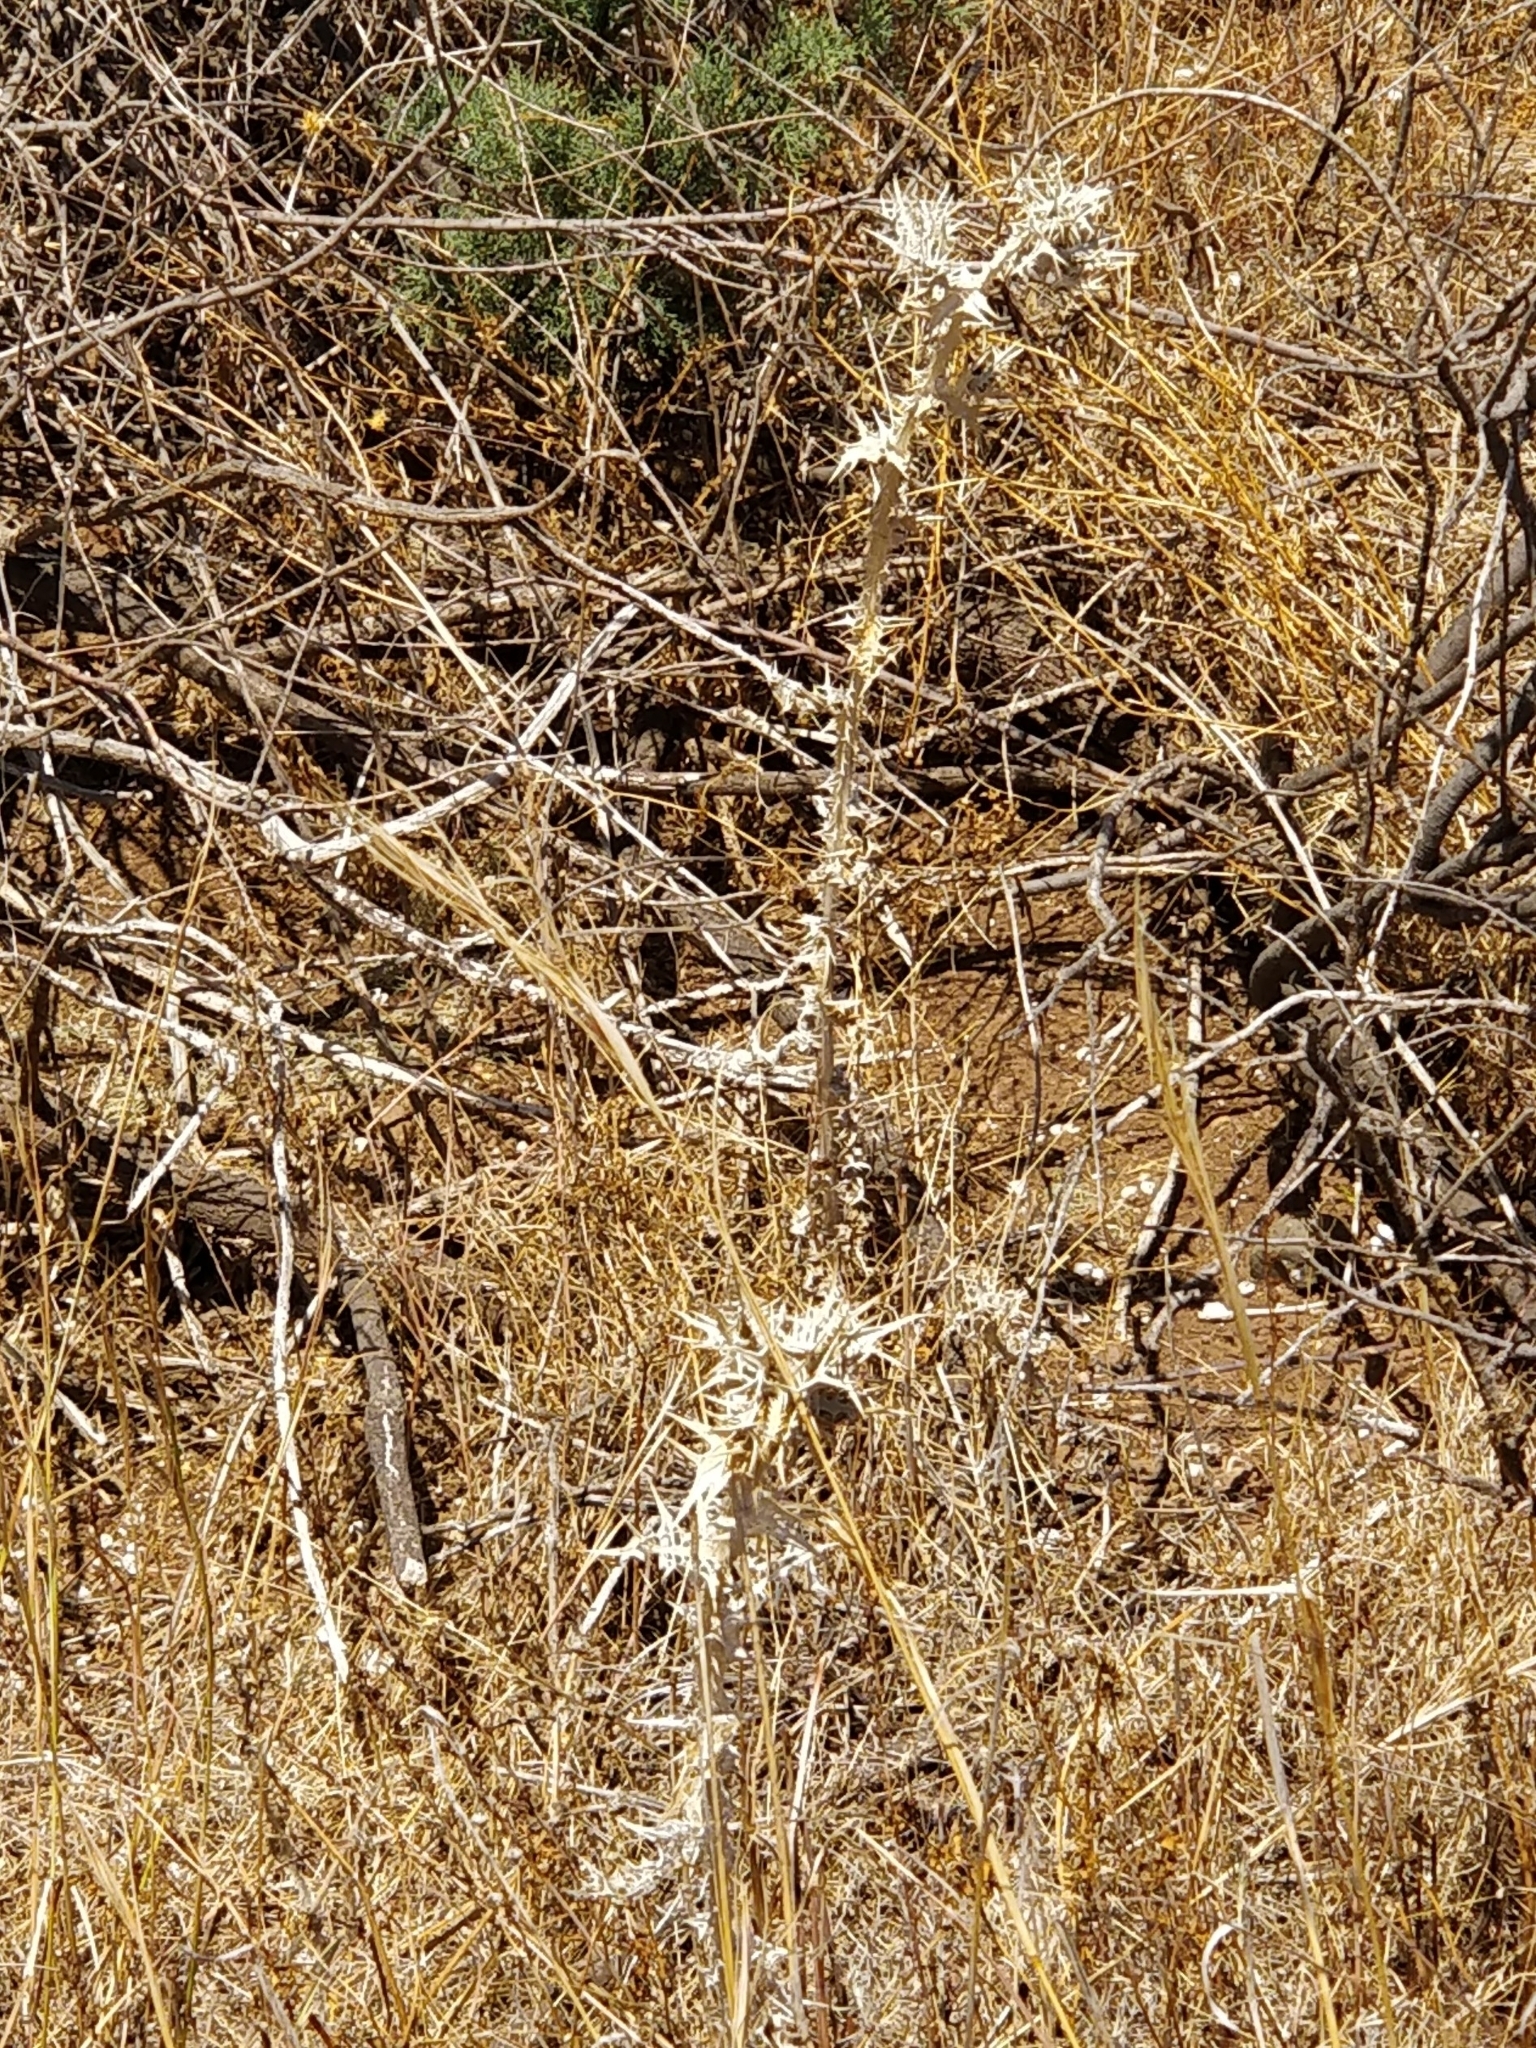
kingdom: Plantae
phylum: Tracheophyta
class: Magnoliopsida
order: Asterales
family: Asteraceae
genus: Scolymus
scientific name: Scolymus maculatus
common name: Spotted thistle
